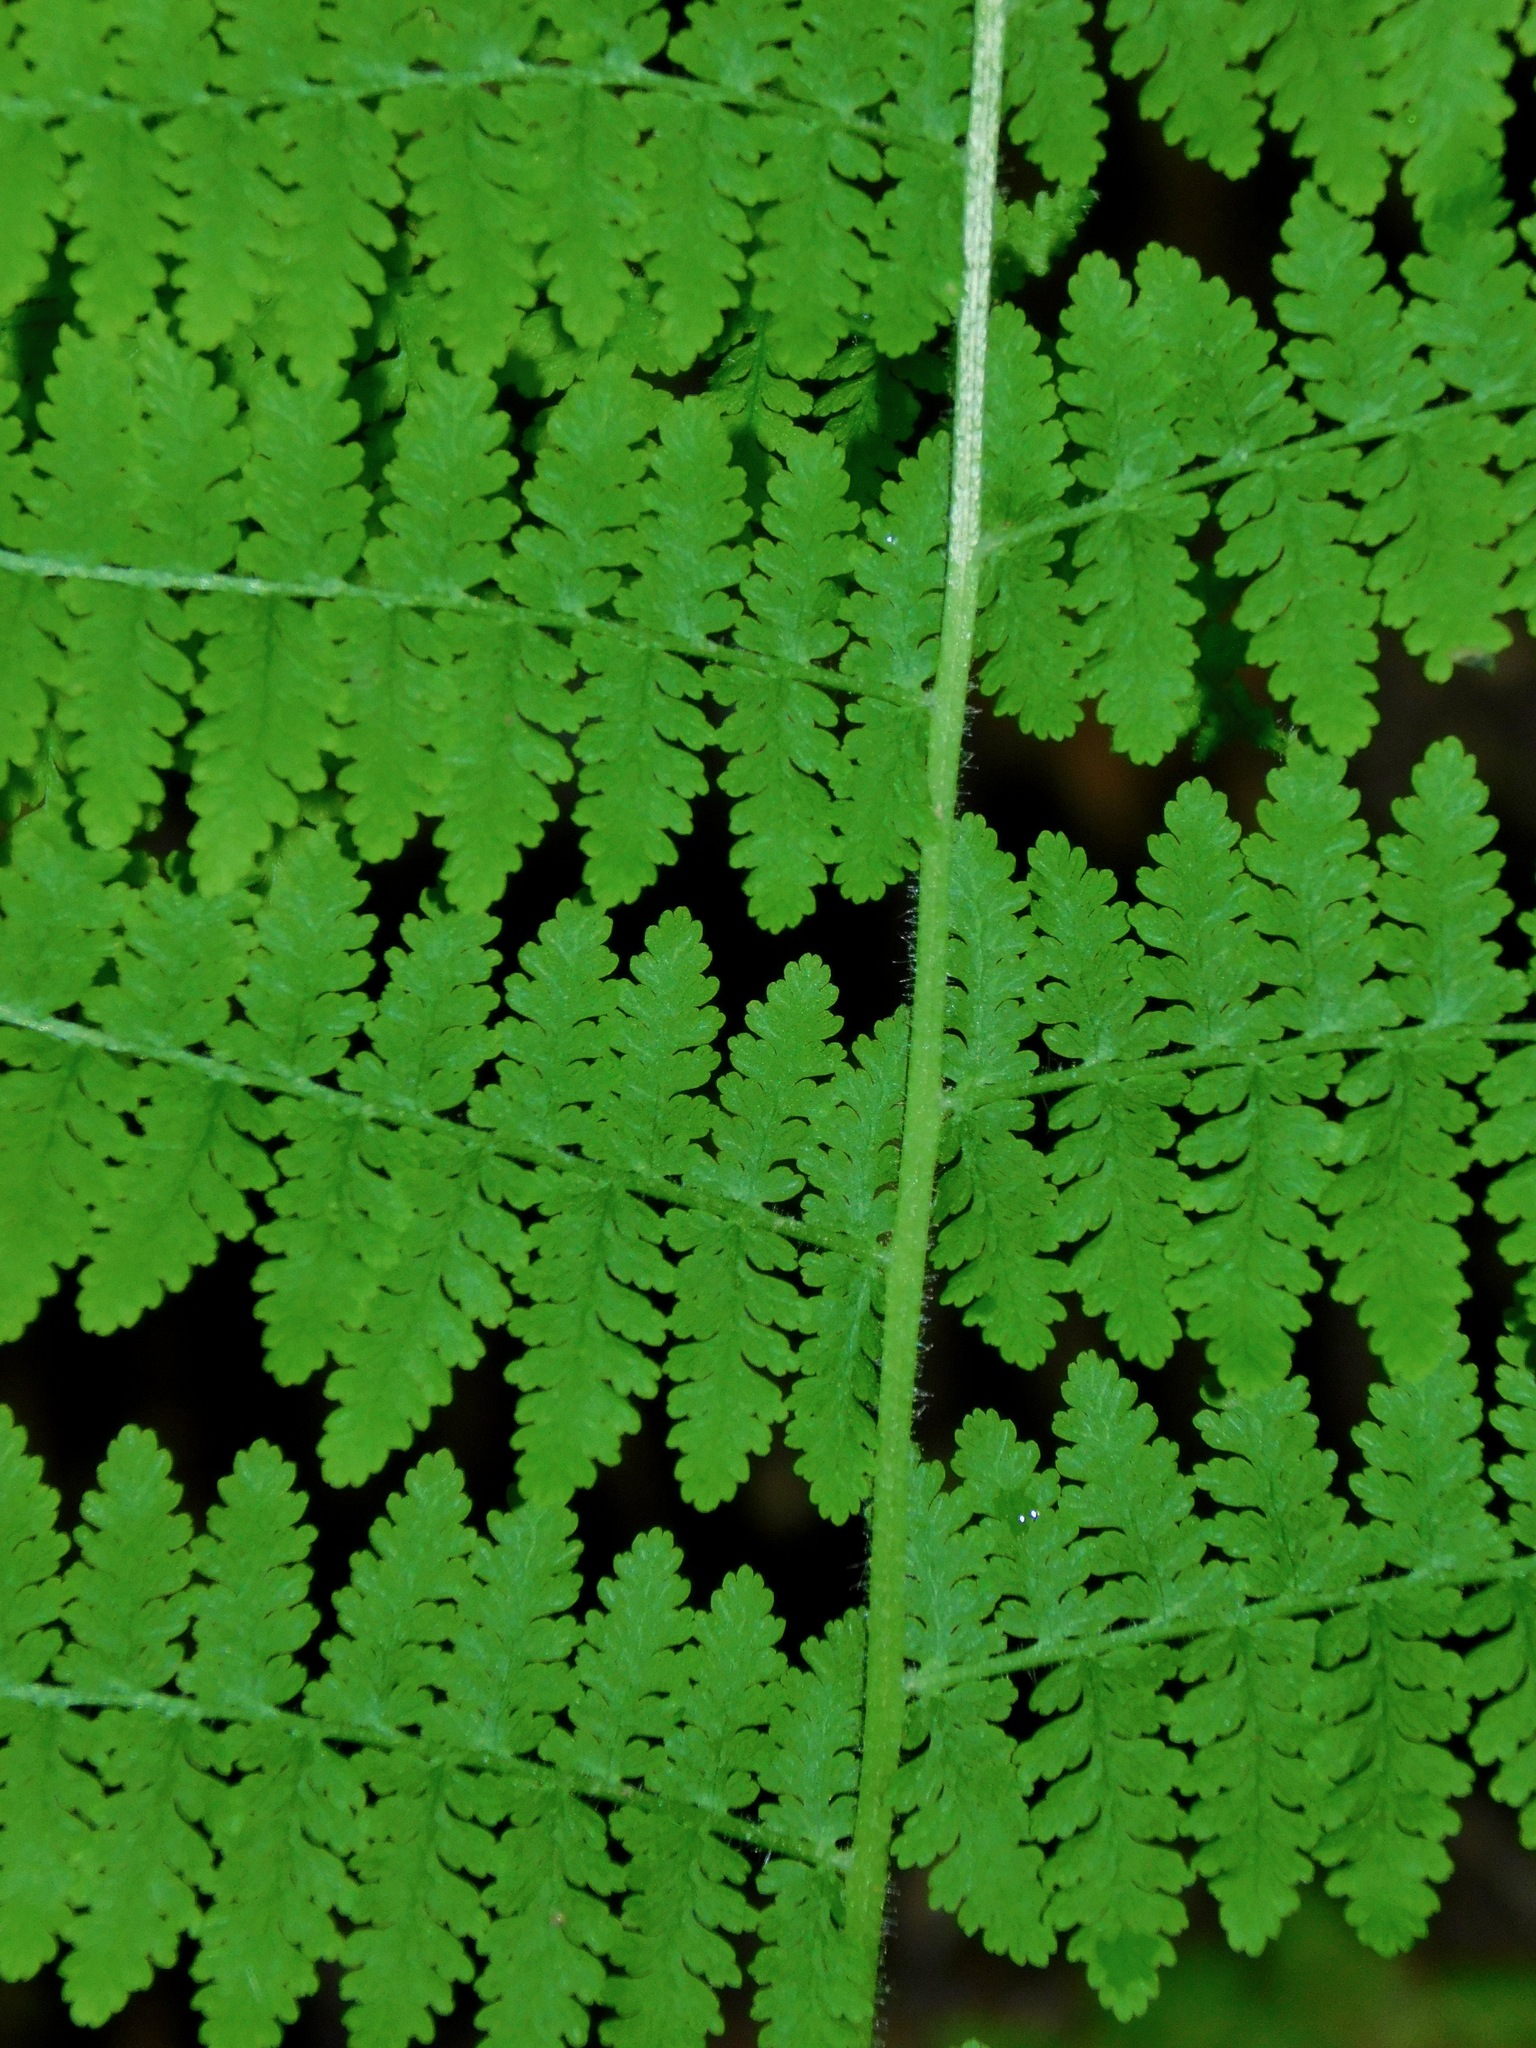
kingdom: Plantae
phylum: Tracheophyta
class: Polypodiopsida
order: Polypodiales
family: Dennstaedtiaceae
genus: Sitobolium
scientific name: Sitobolium punctilobum
